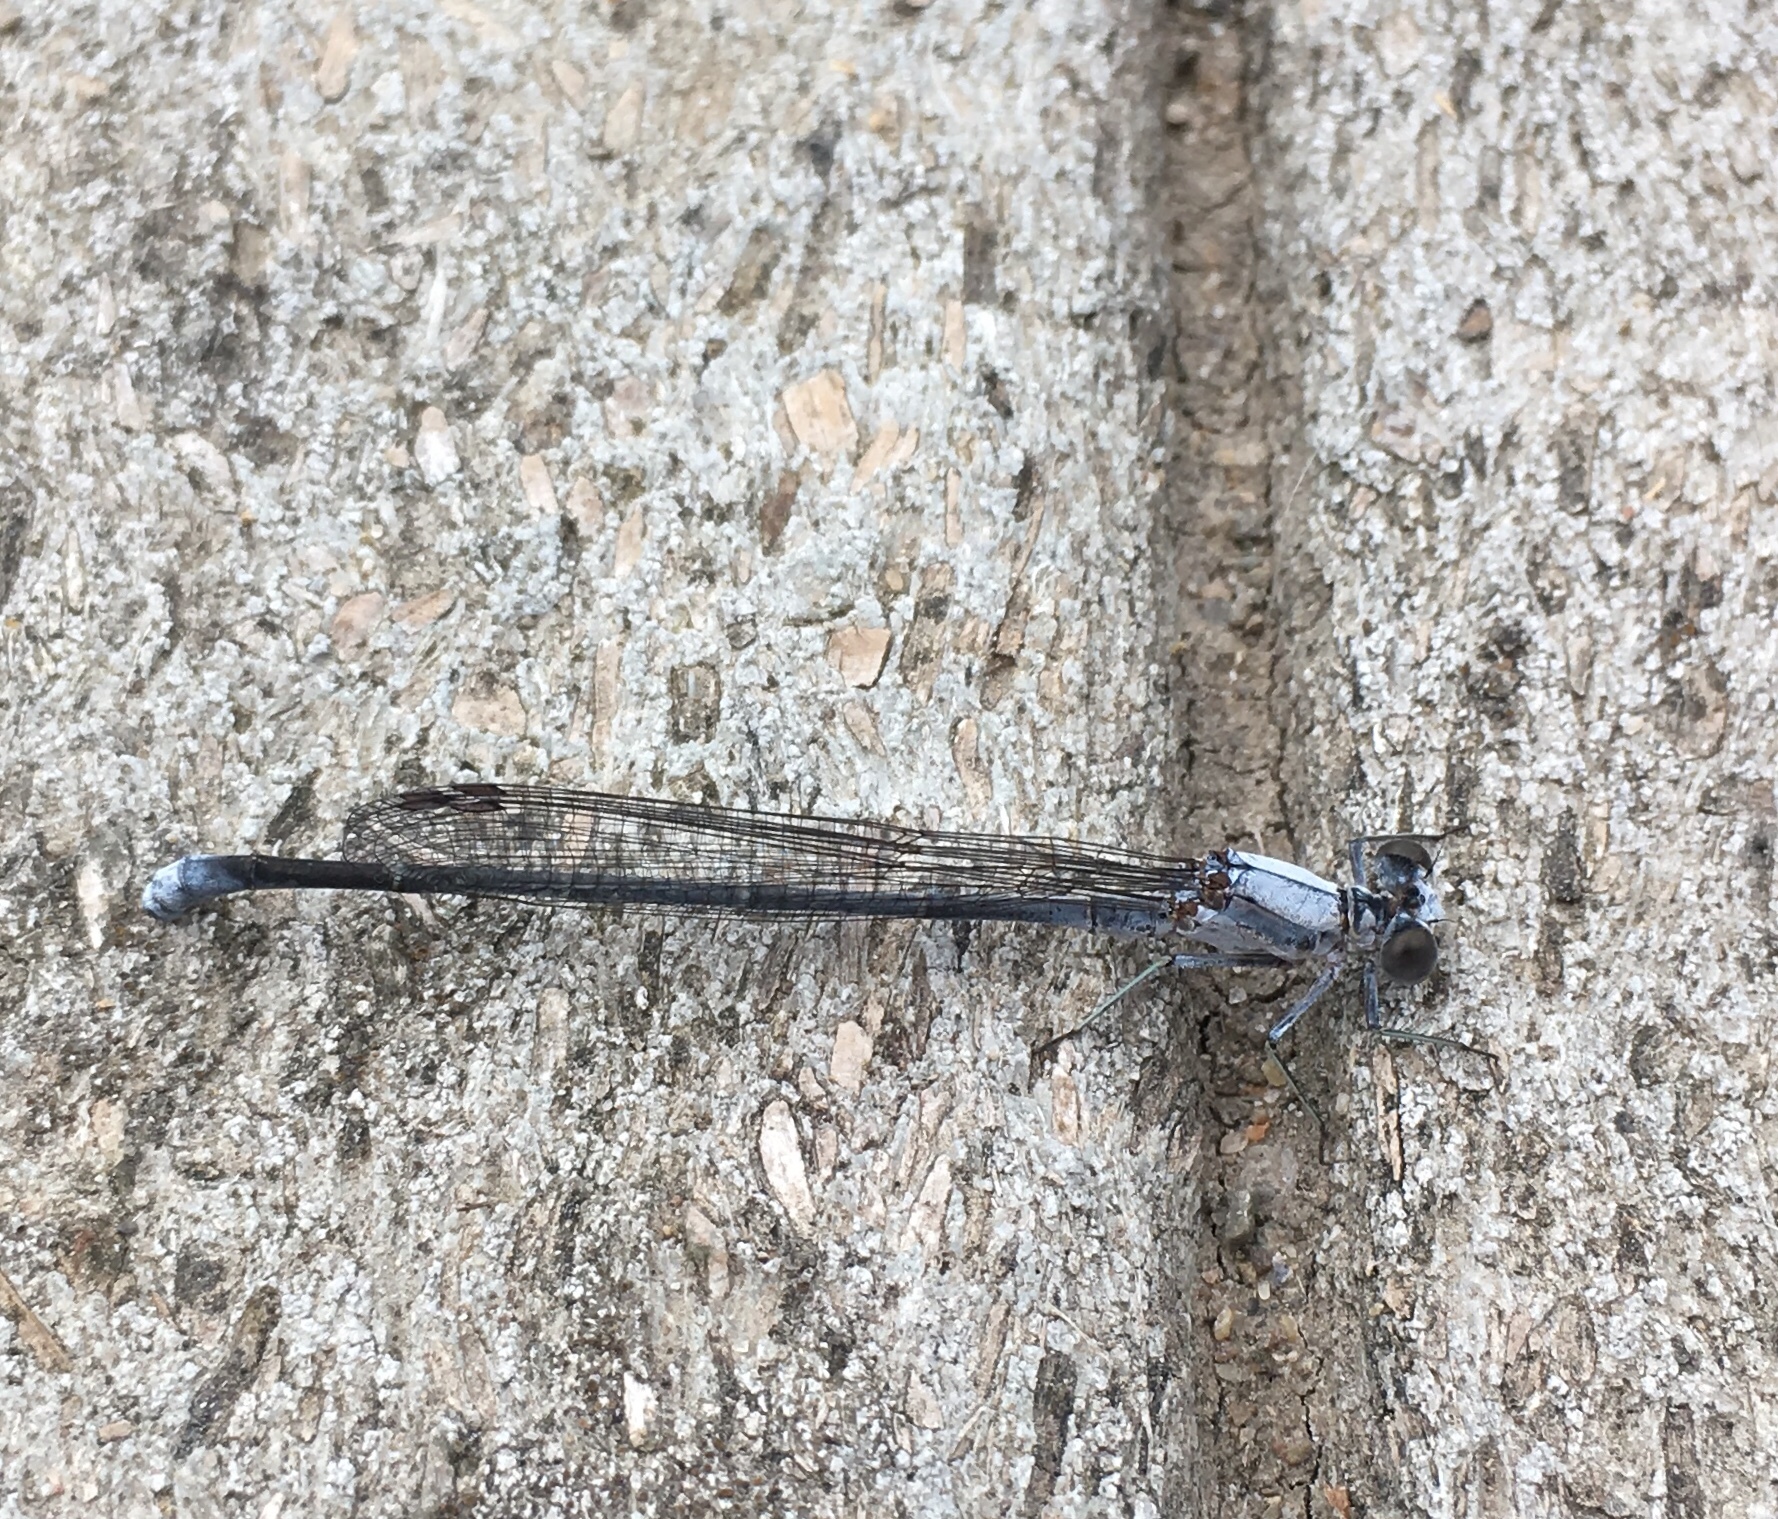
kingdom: Animalia
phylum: Arthropoda
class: Insecta
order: Odonata
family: Coenagrionidae
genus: Argia
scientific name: Argia moesta
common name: Powdered dancer
